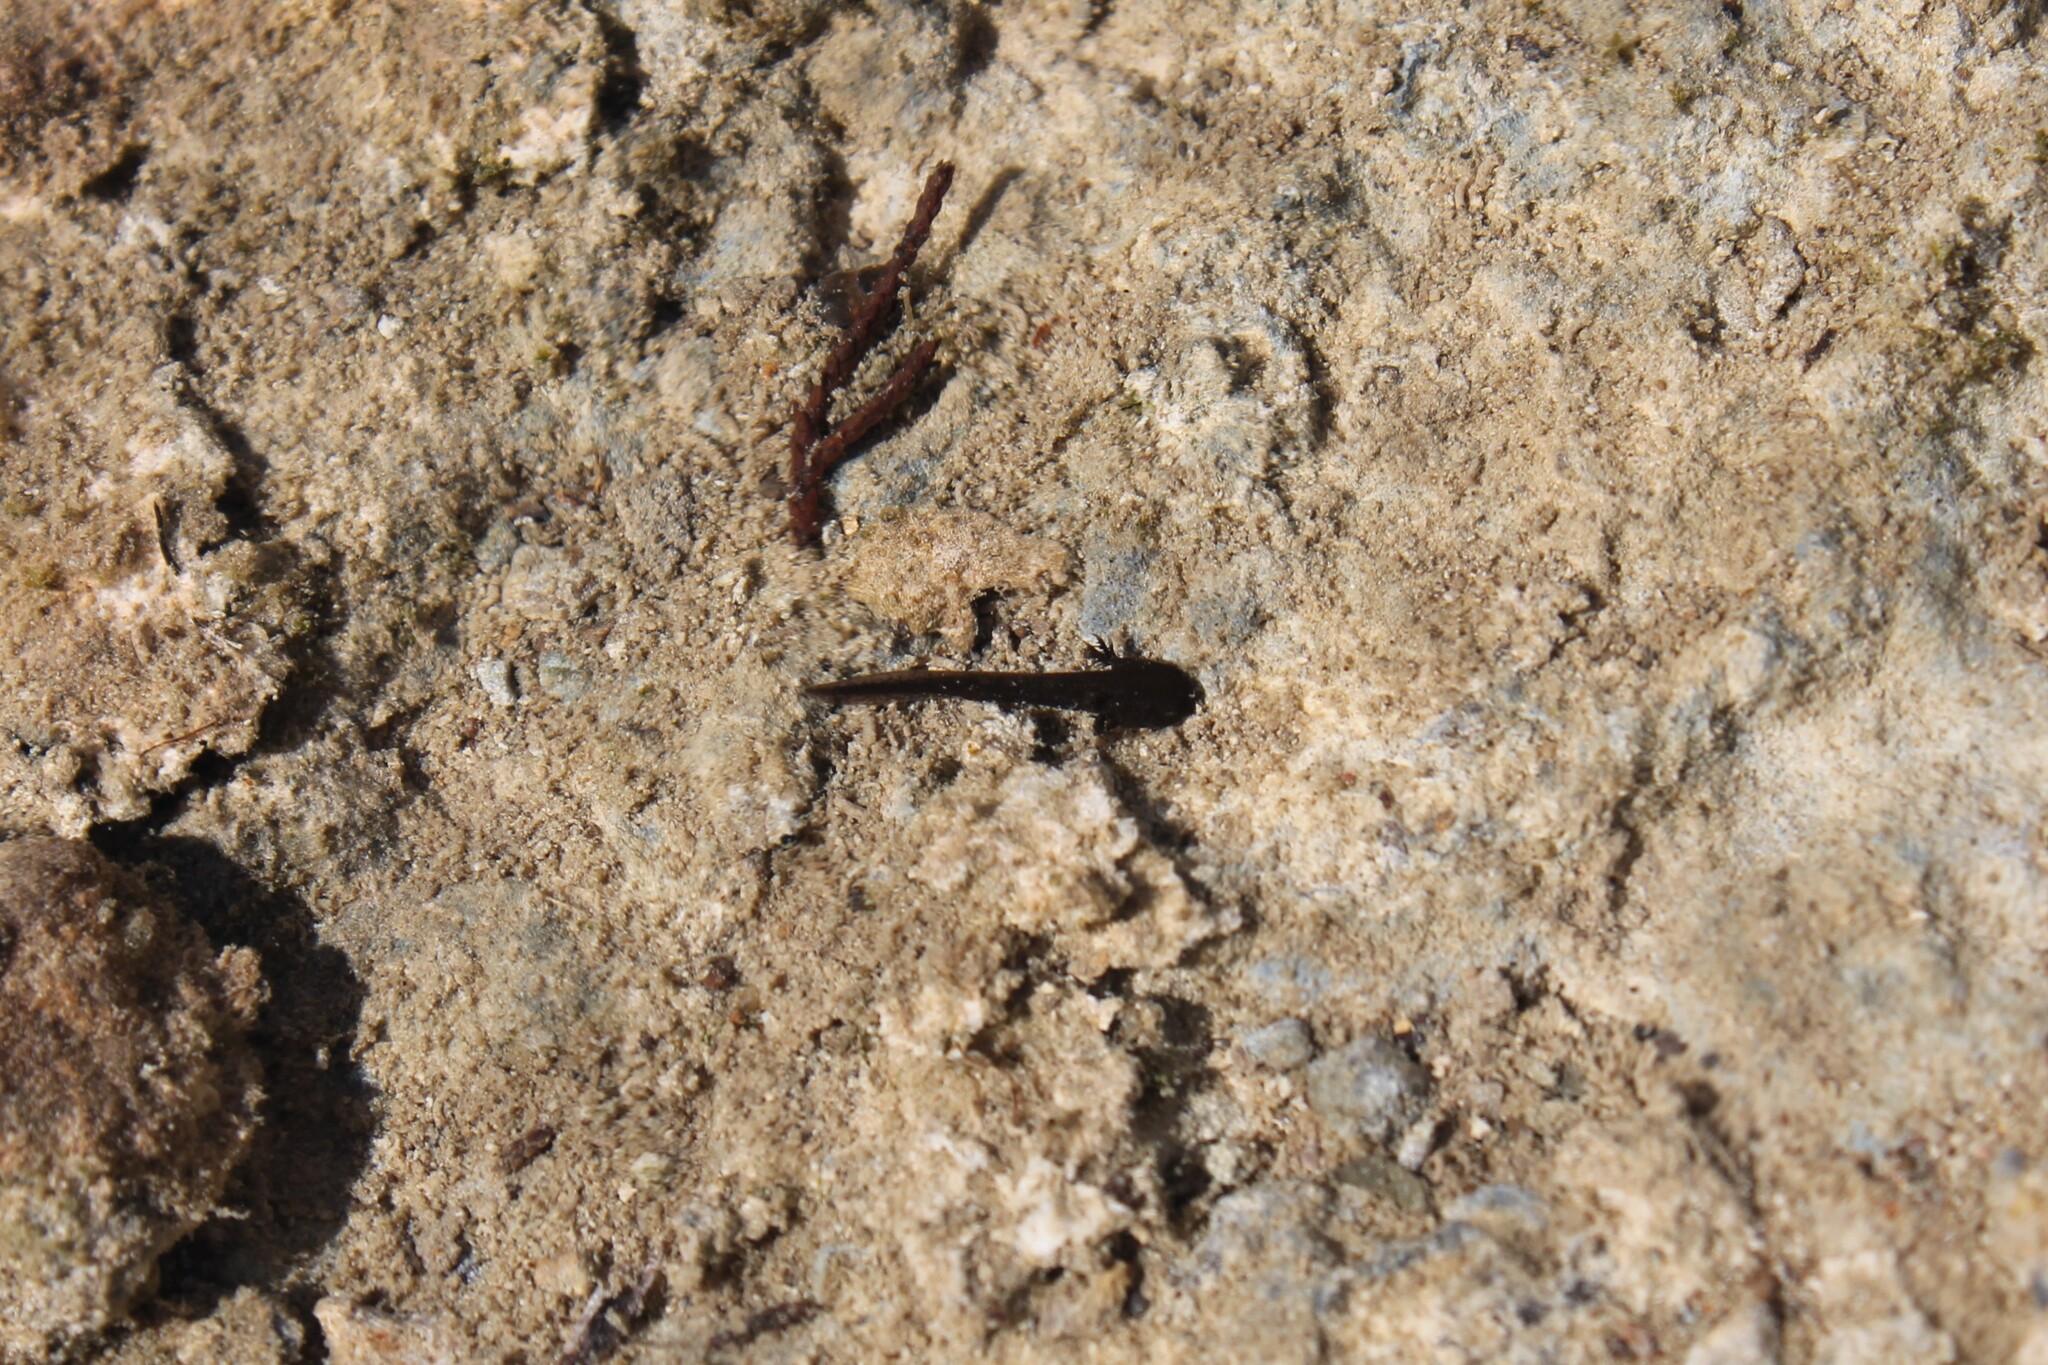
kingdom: Animalia
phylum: Chordata
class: Amphibia
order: Caudata
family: Ambystomatidae
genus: Ambystoma
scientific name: Ambystoma barbouri
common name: Streamside salamander
